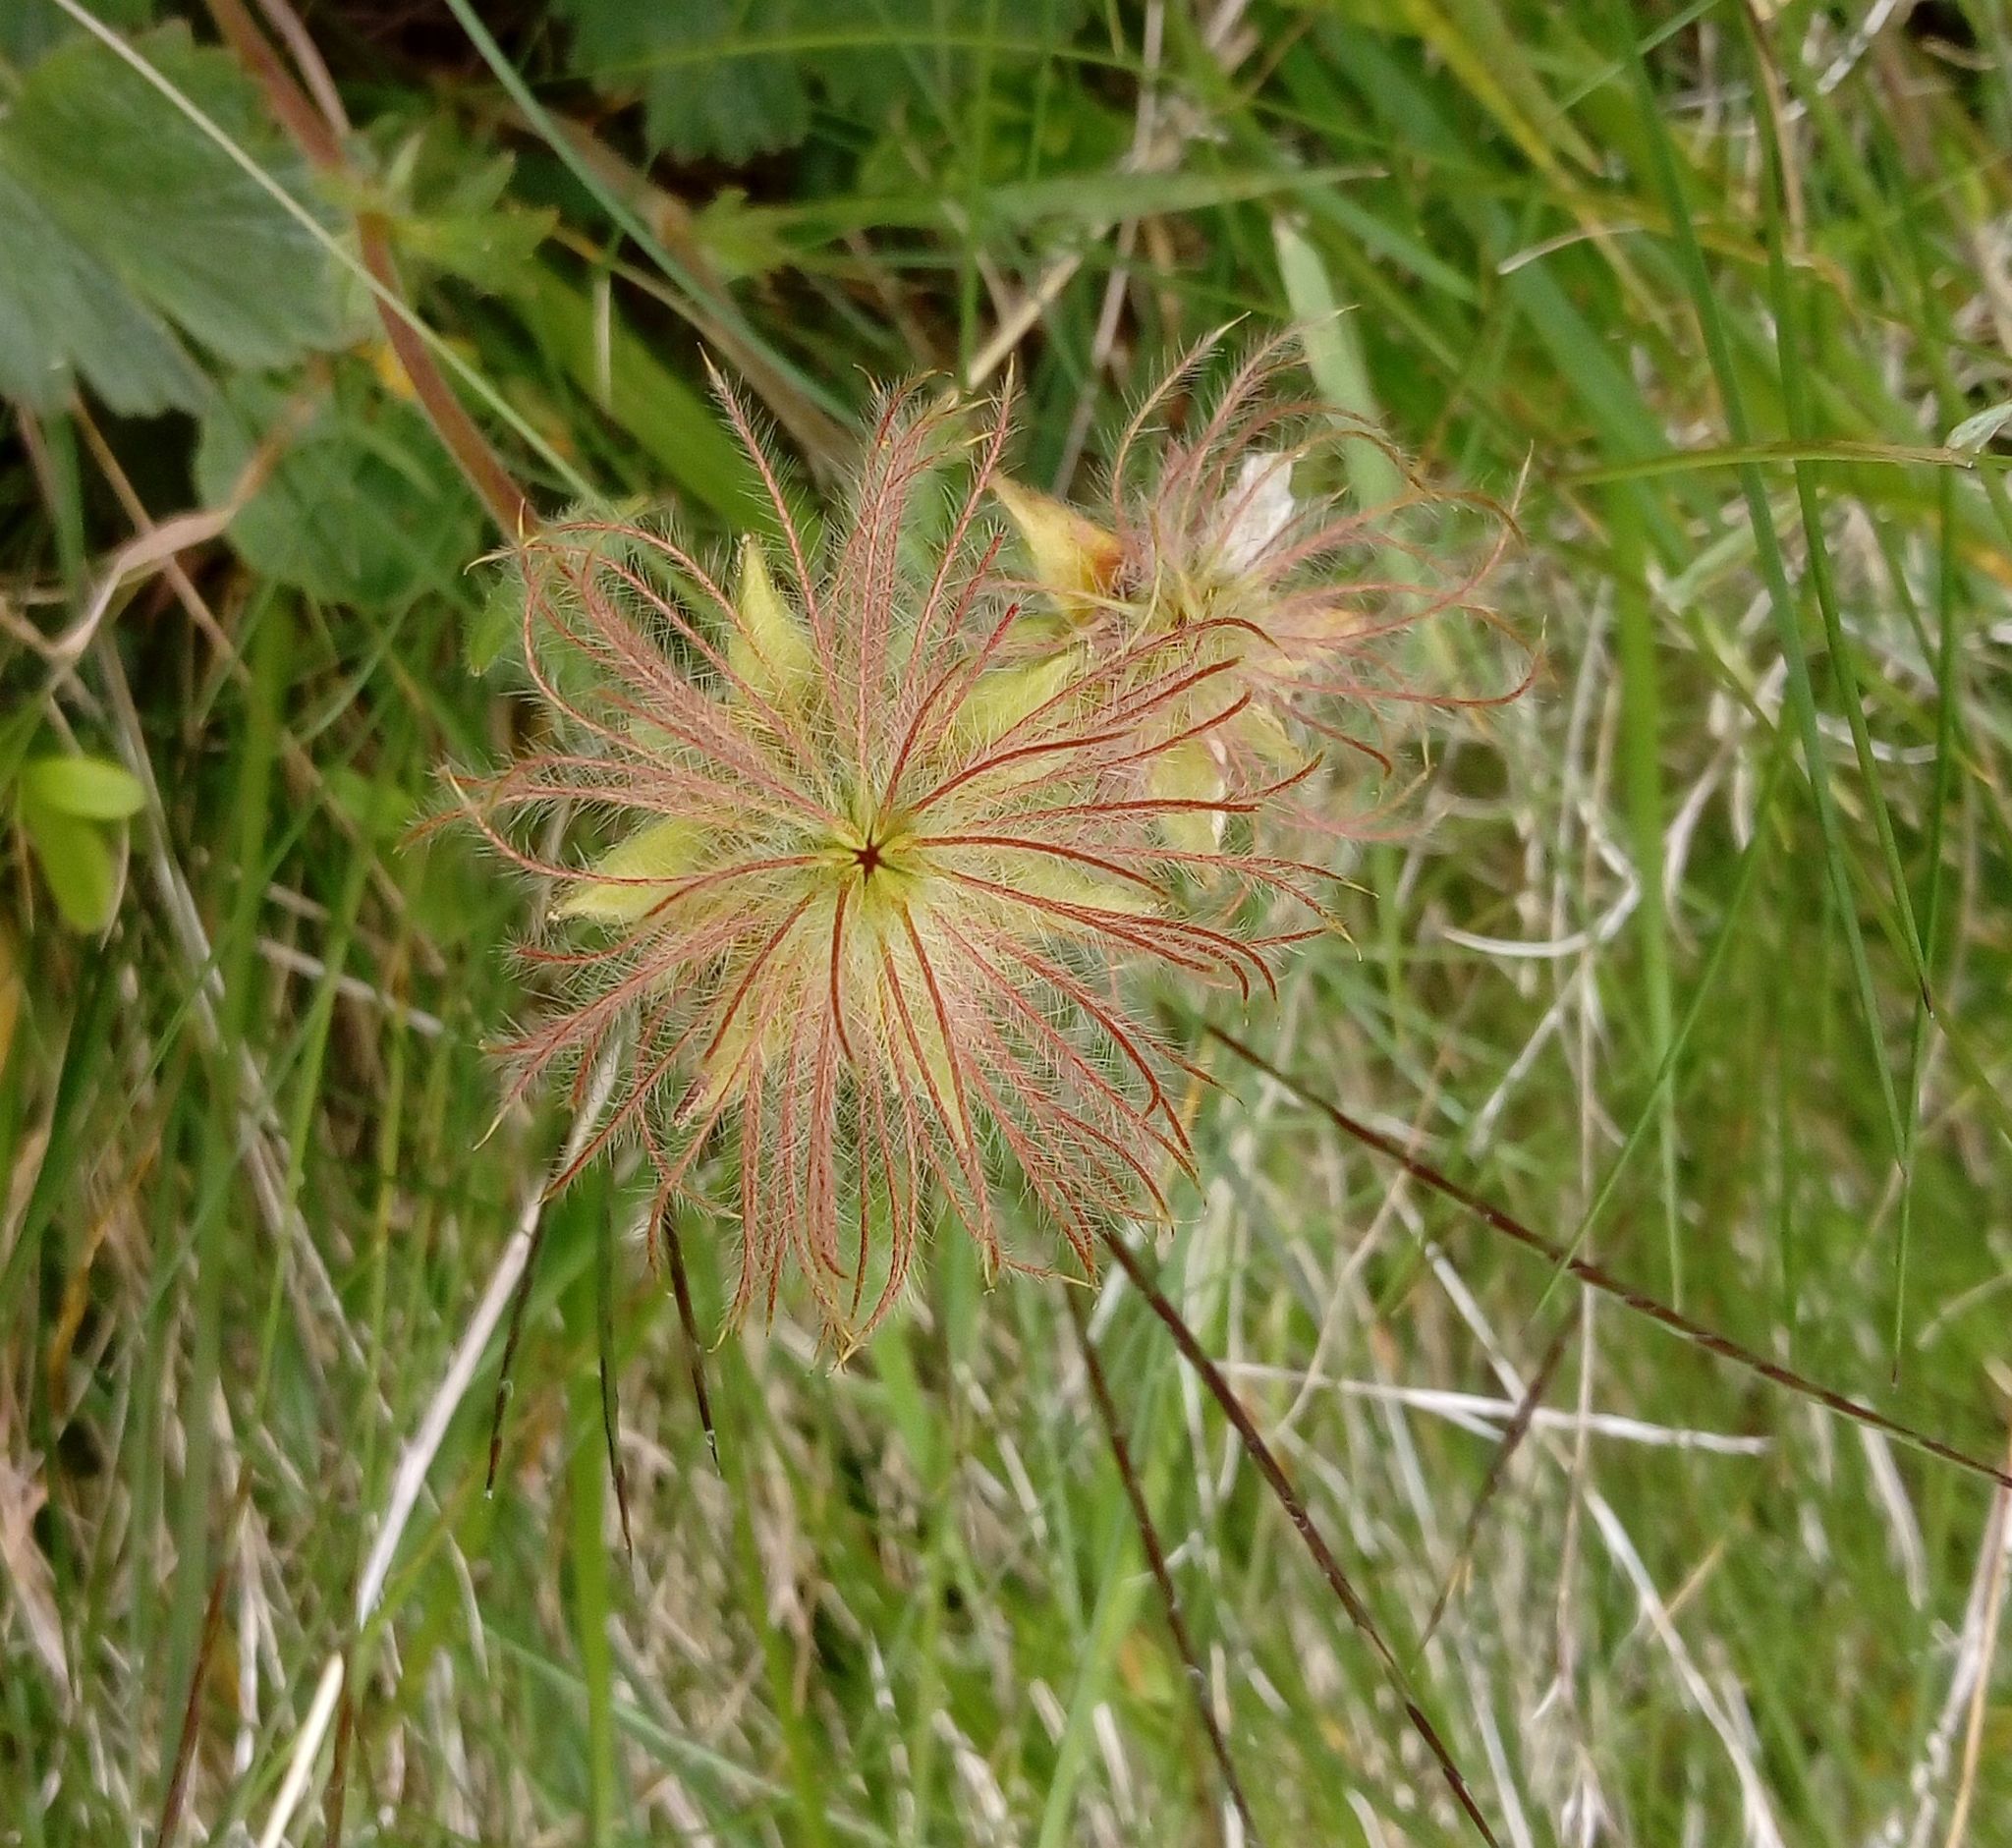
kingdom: Plantae
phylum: Tracheophyta
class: Magnoliopsida
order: Rosales
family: Rosaceae
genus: Geum
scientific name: Geum montanum
